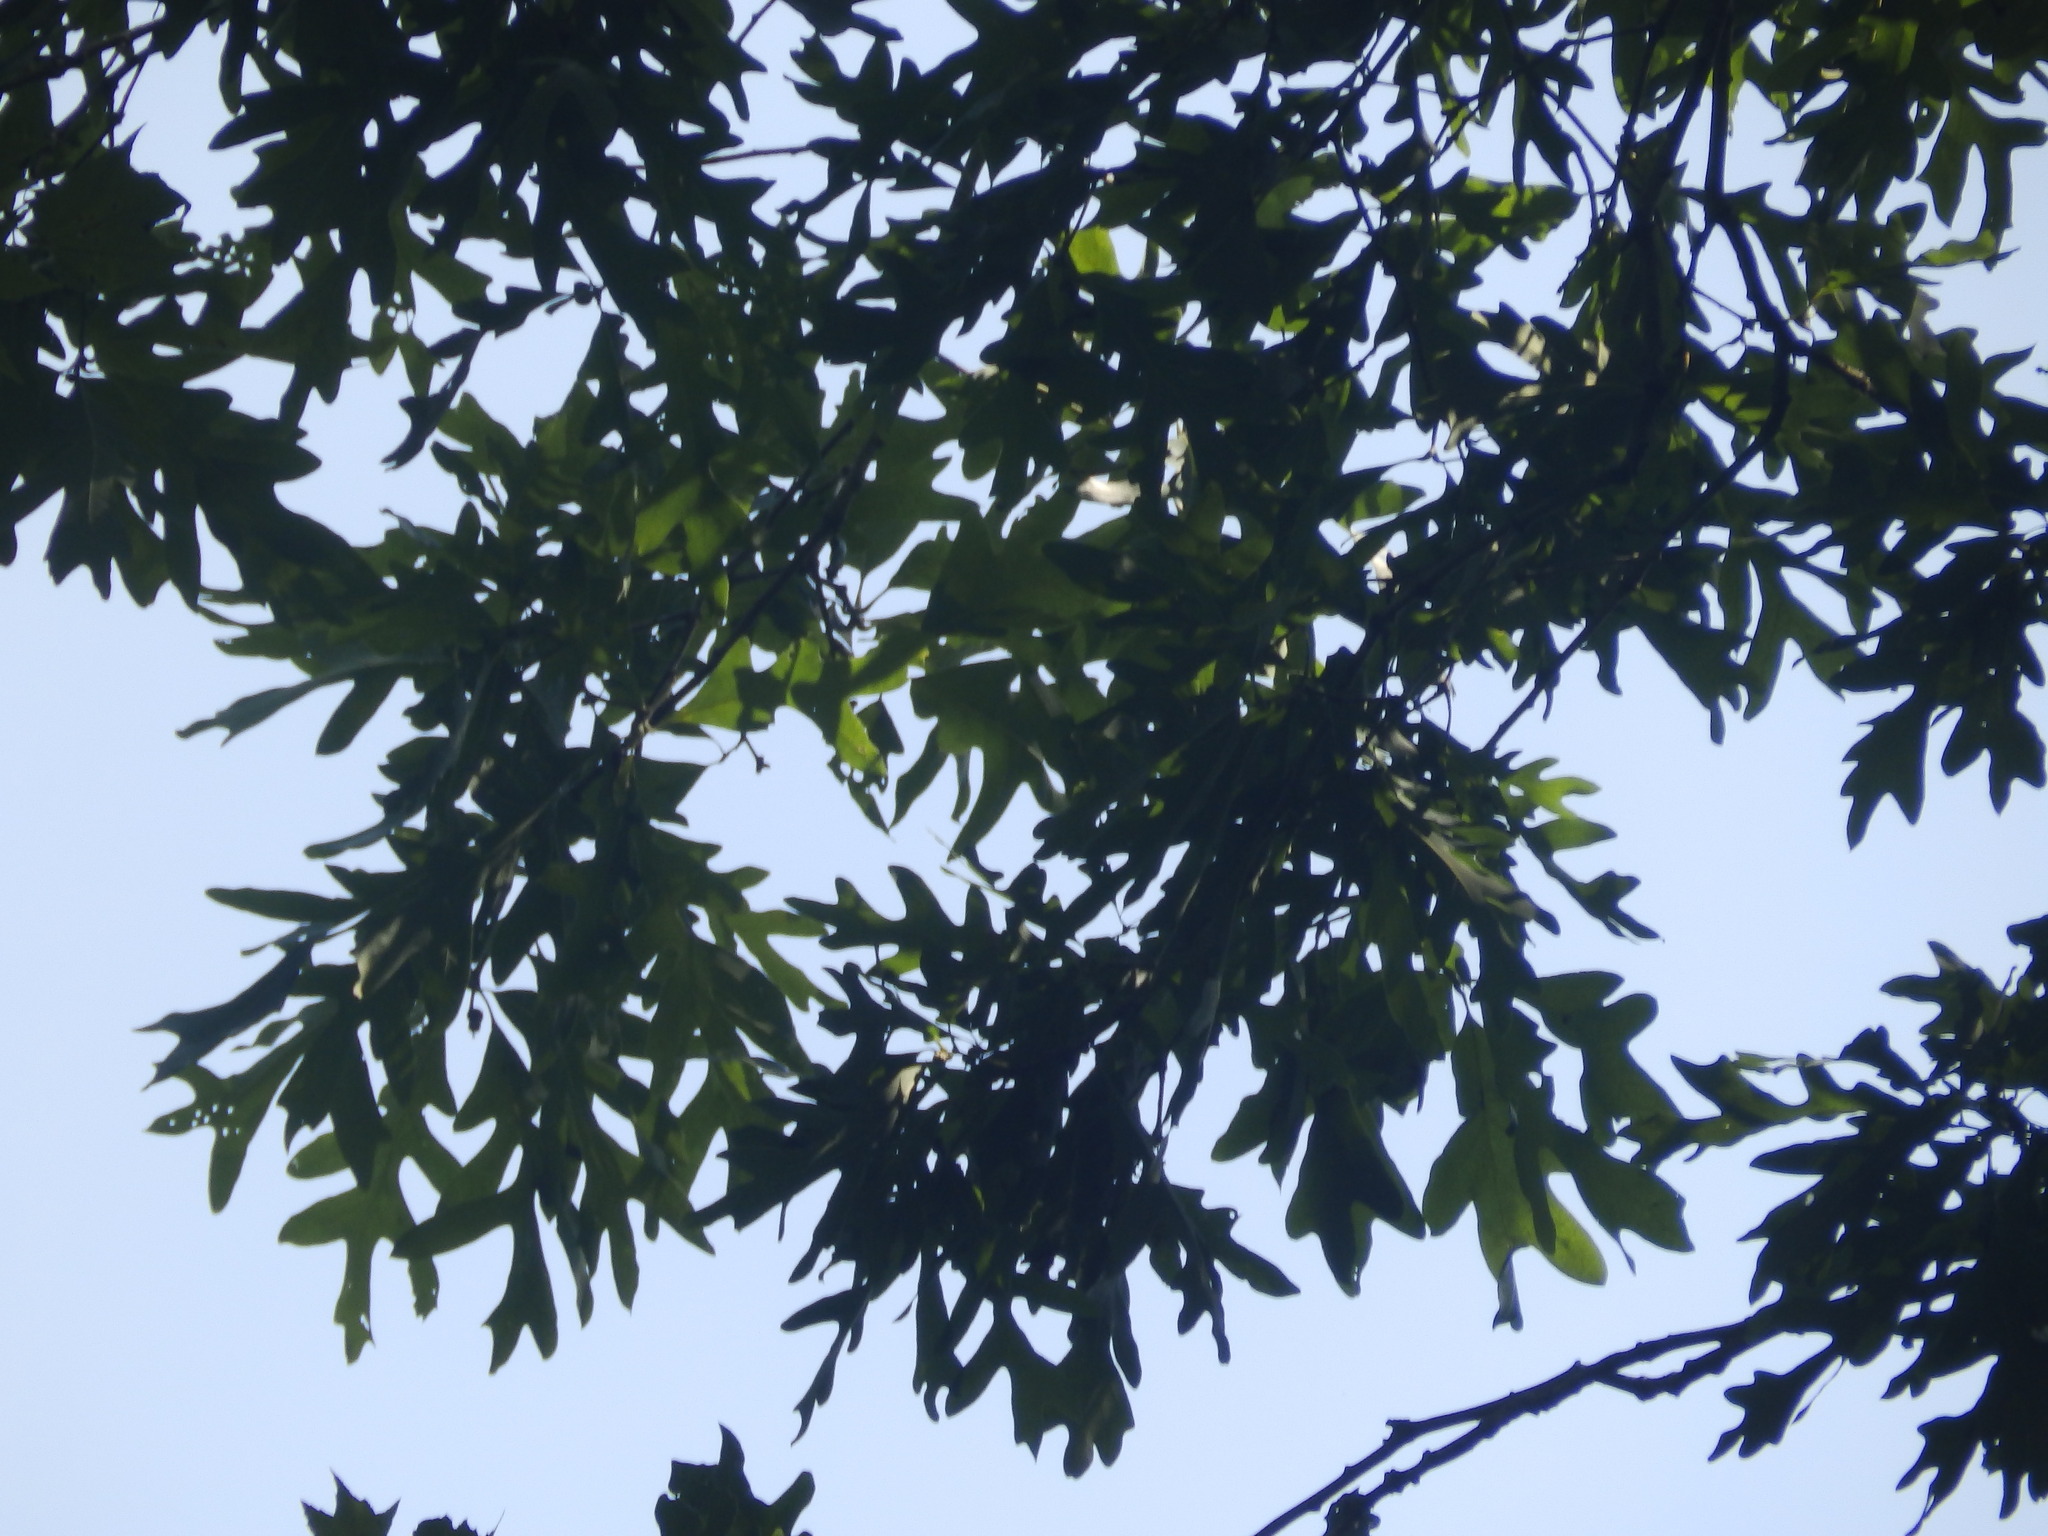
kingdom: Plantae
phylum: Tracheophyta
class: Magnoliopsida
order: Fagales
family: Fagaceae
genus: Quercus
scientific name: Quercus alba
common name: White oak
